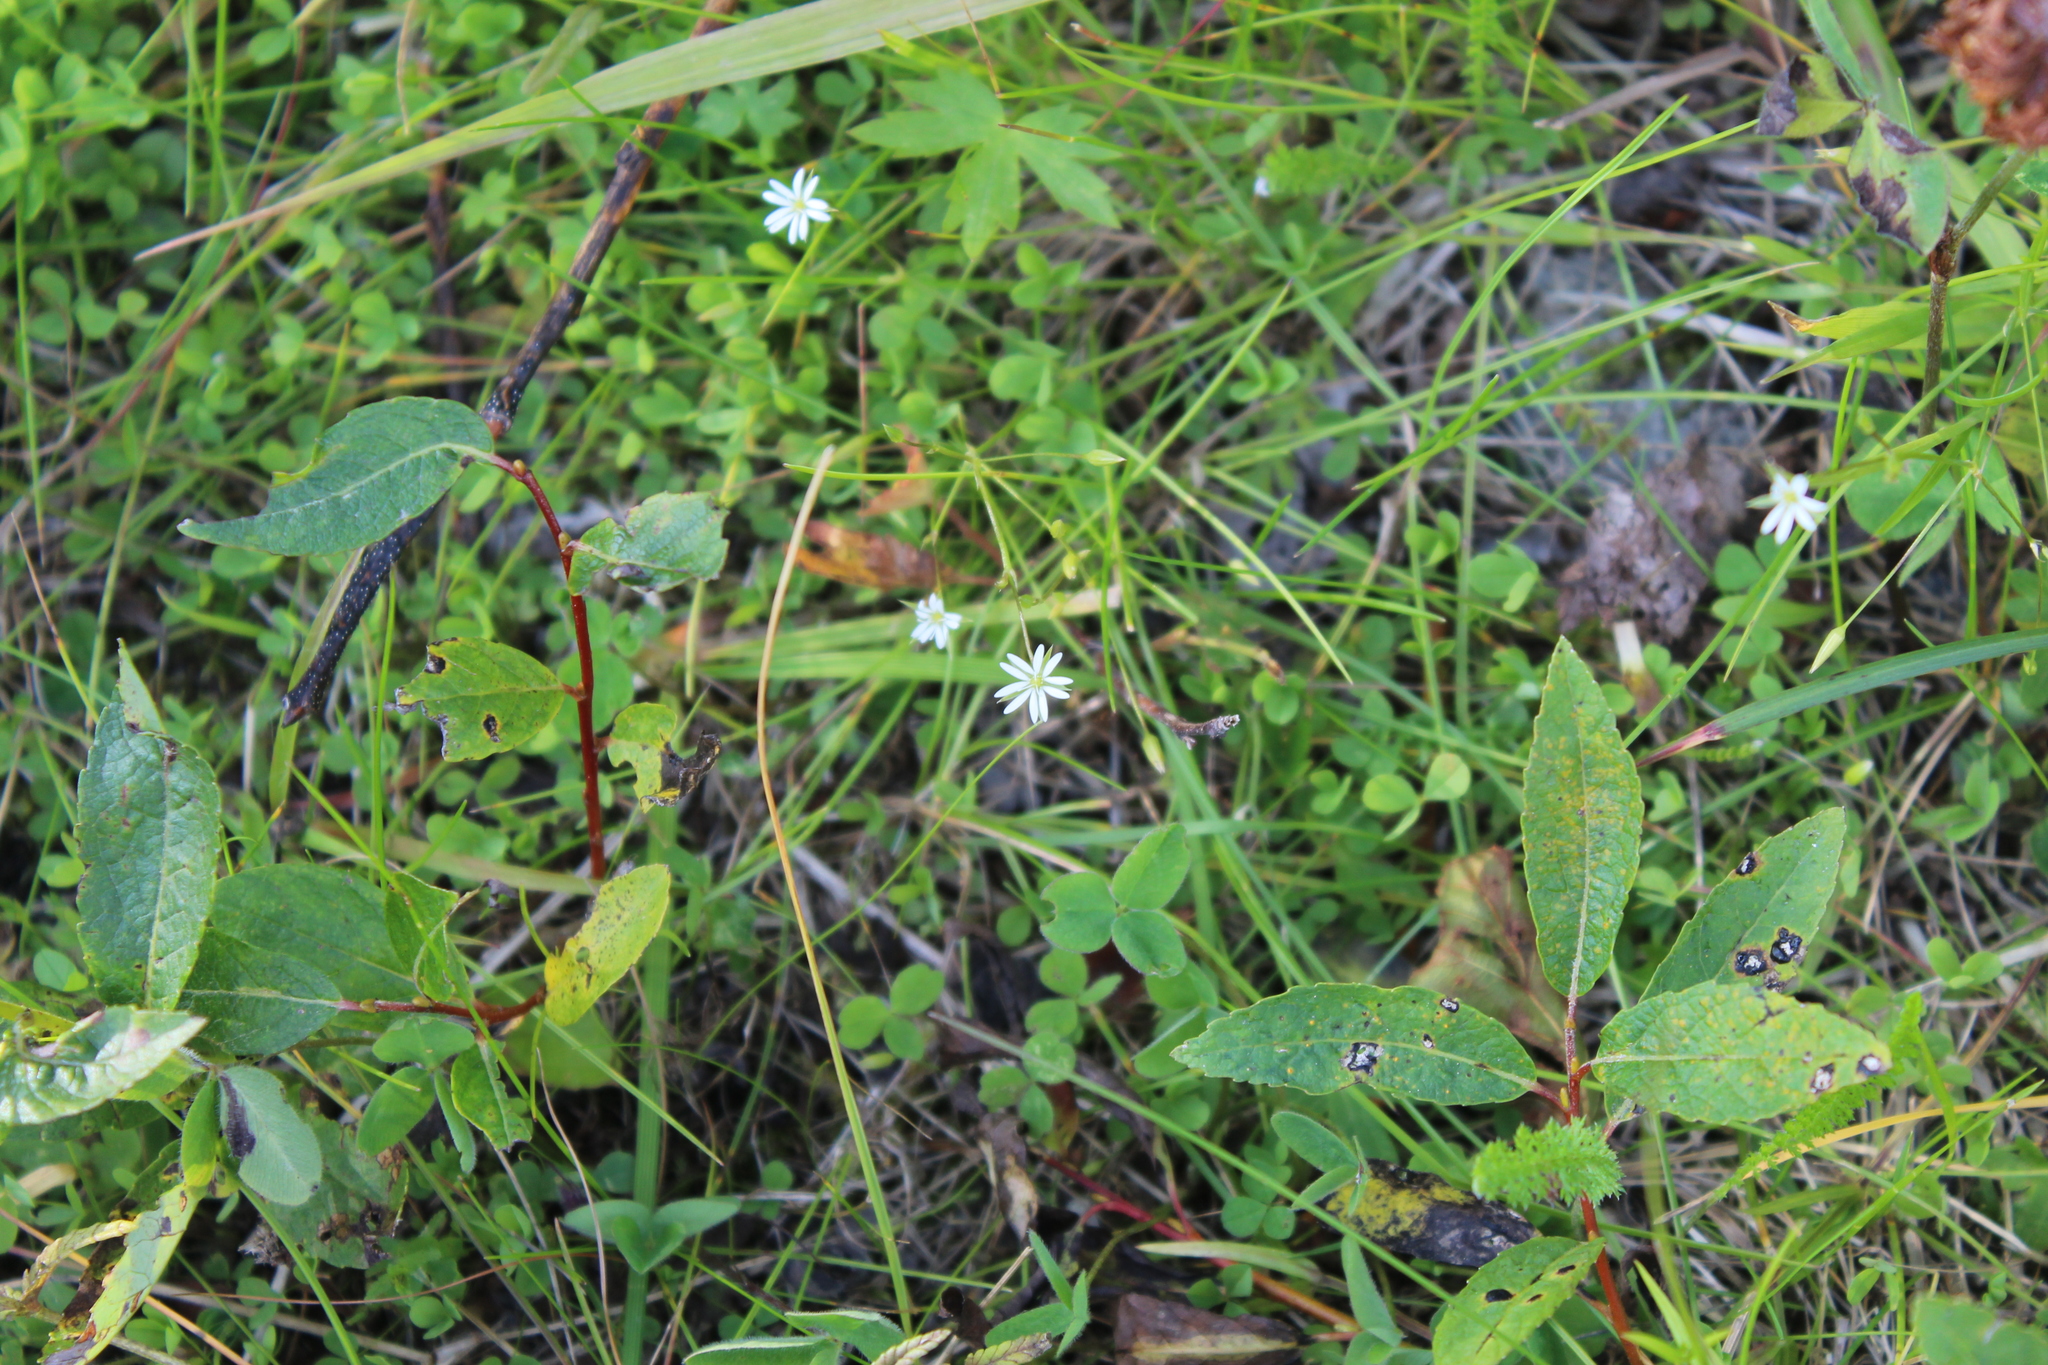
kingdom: Plantae
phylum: Tracheophyta
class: Magnoliopsida
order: Caryophyllales
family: Caryophyllaceae
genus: Stellaria
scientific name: Stellaria graminea
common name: Grass-like starwort
